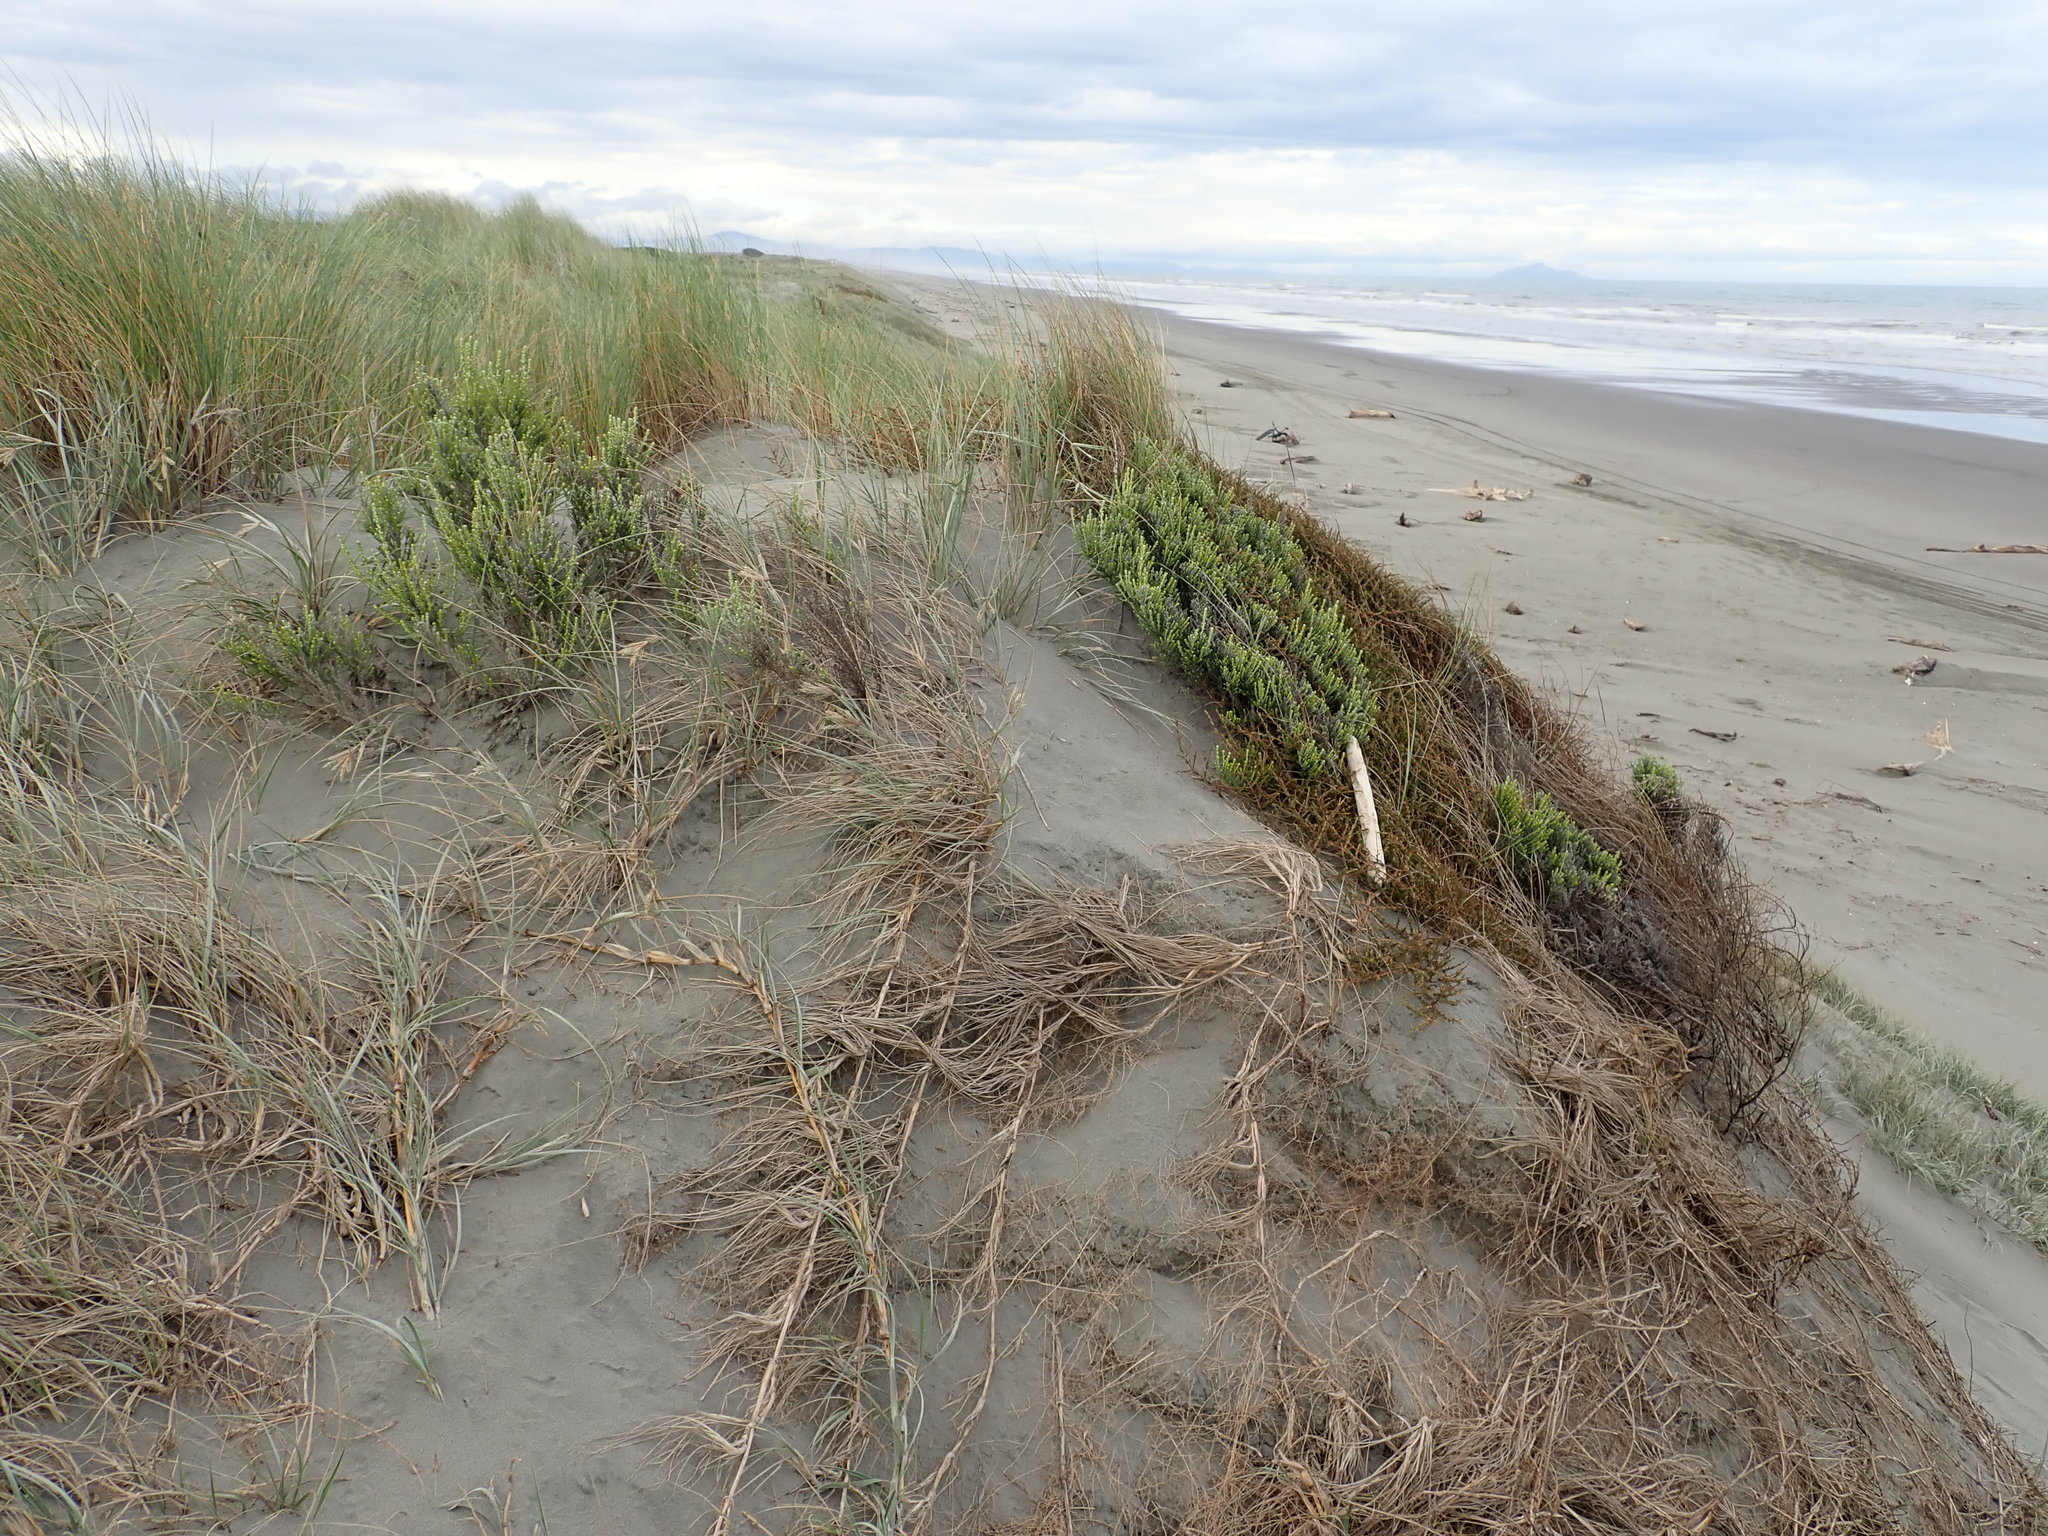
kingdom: Plantae
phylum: Tracheophyta
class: Magnoliopsida
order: Asterales
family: Asteraceae
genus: Ozothamnus
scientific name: Ozothamnus leptophyllus
